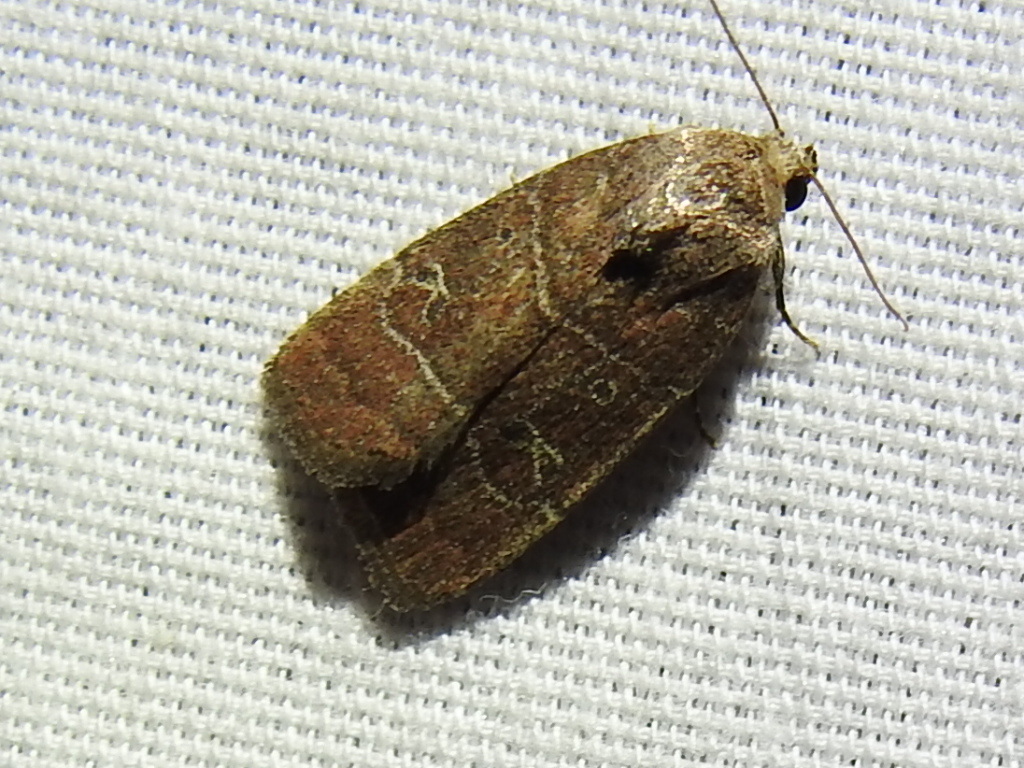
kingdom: Animalia
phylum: Arthropoda
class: Insecta
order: Lepidoptera
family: Noctuidae
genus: Elaphria
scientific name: Elaphria grata
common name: Grateful midget moth
